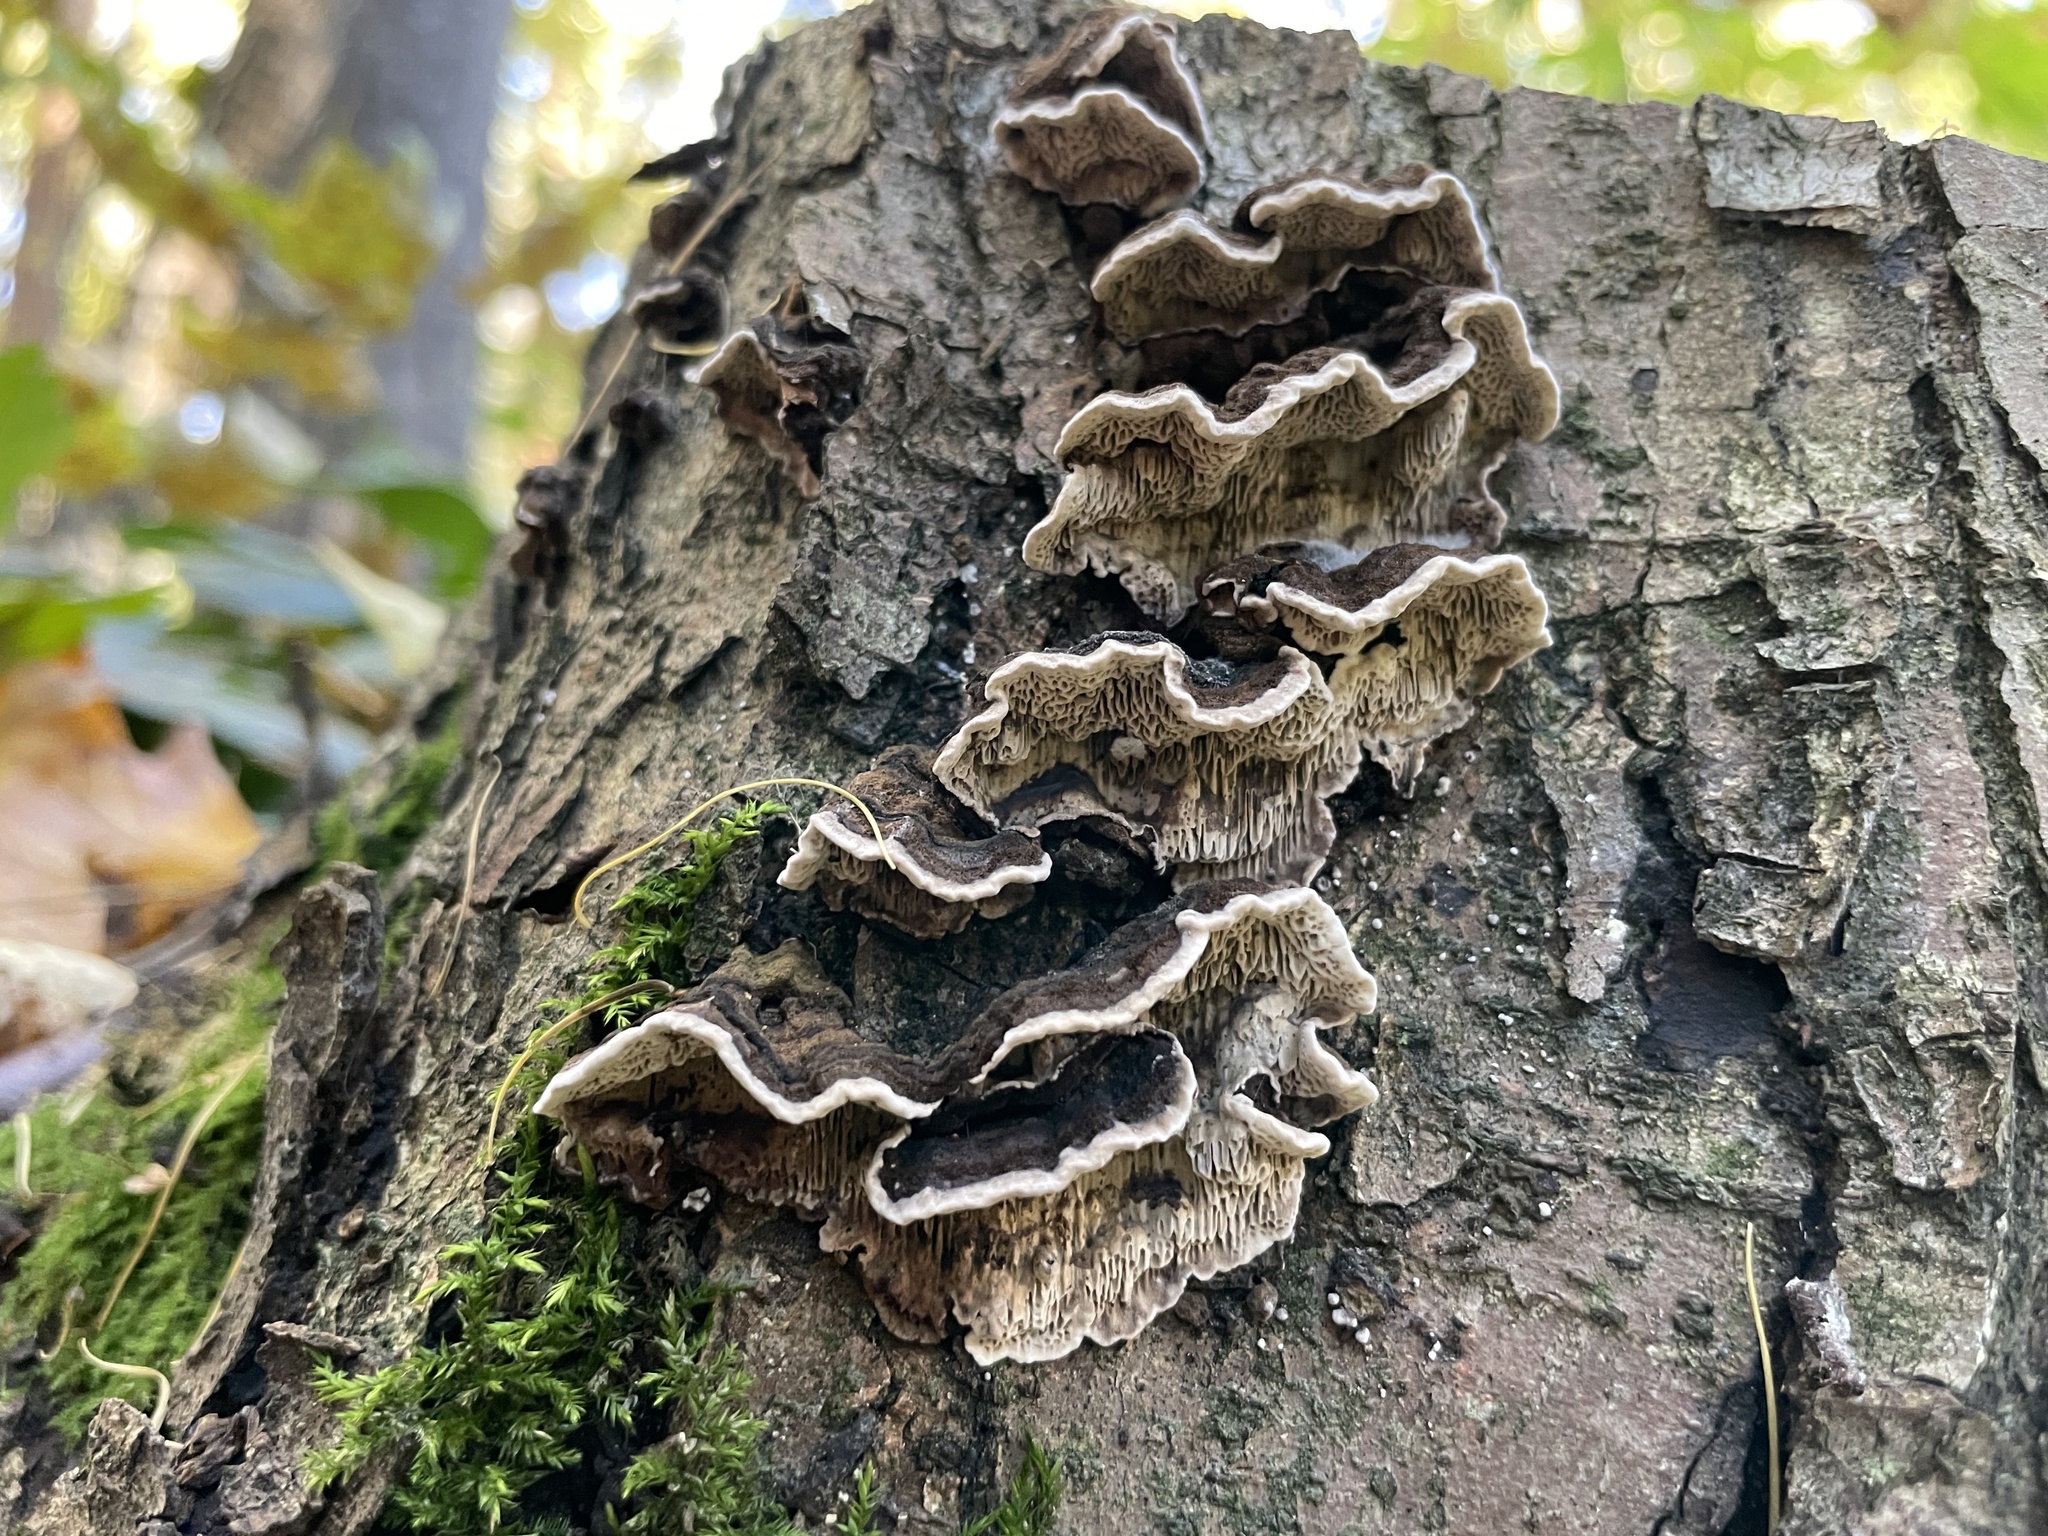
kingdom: Fungi
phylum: Basidiomycota
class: Agaricomycetes
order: Polyporales
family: Polyporaceae
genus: Podofomes
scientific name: Podofomes mollis
